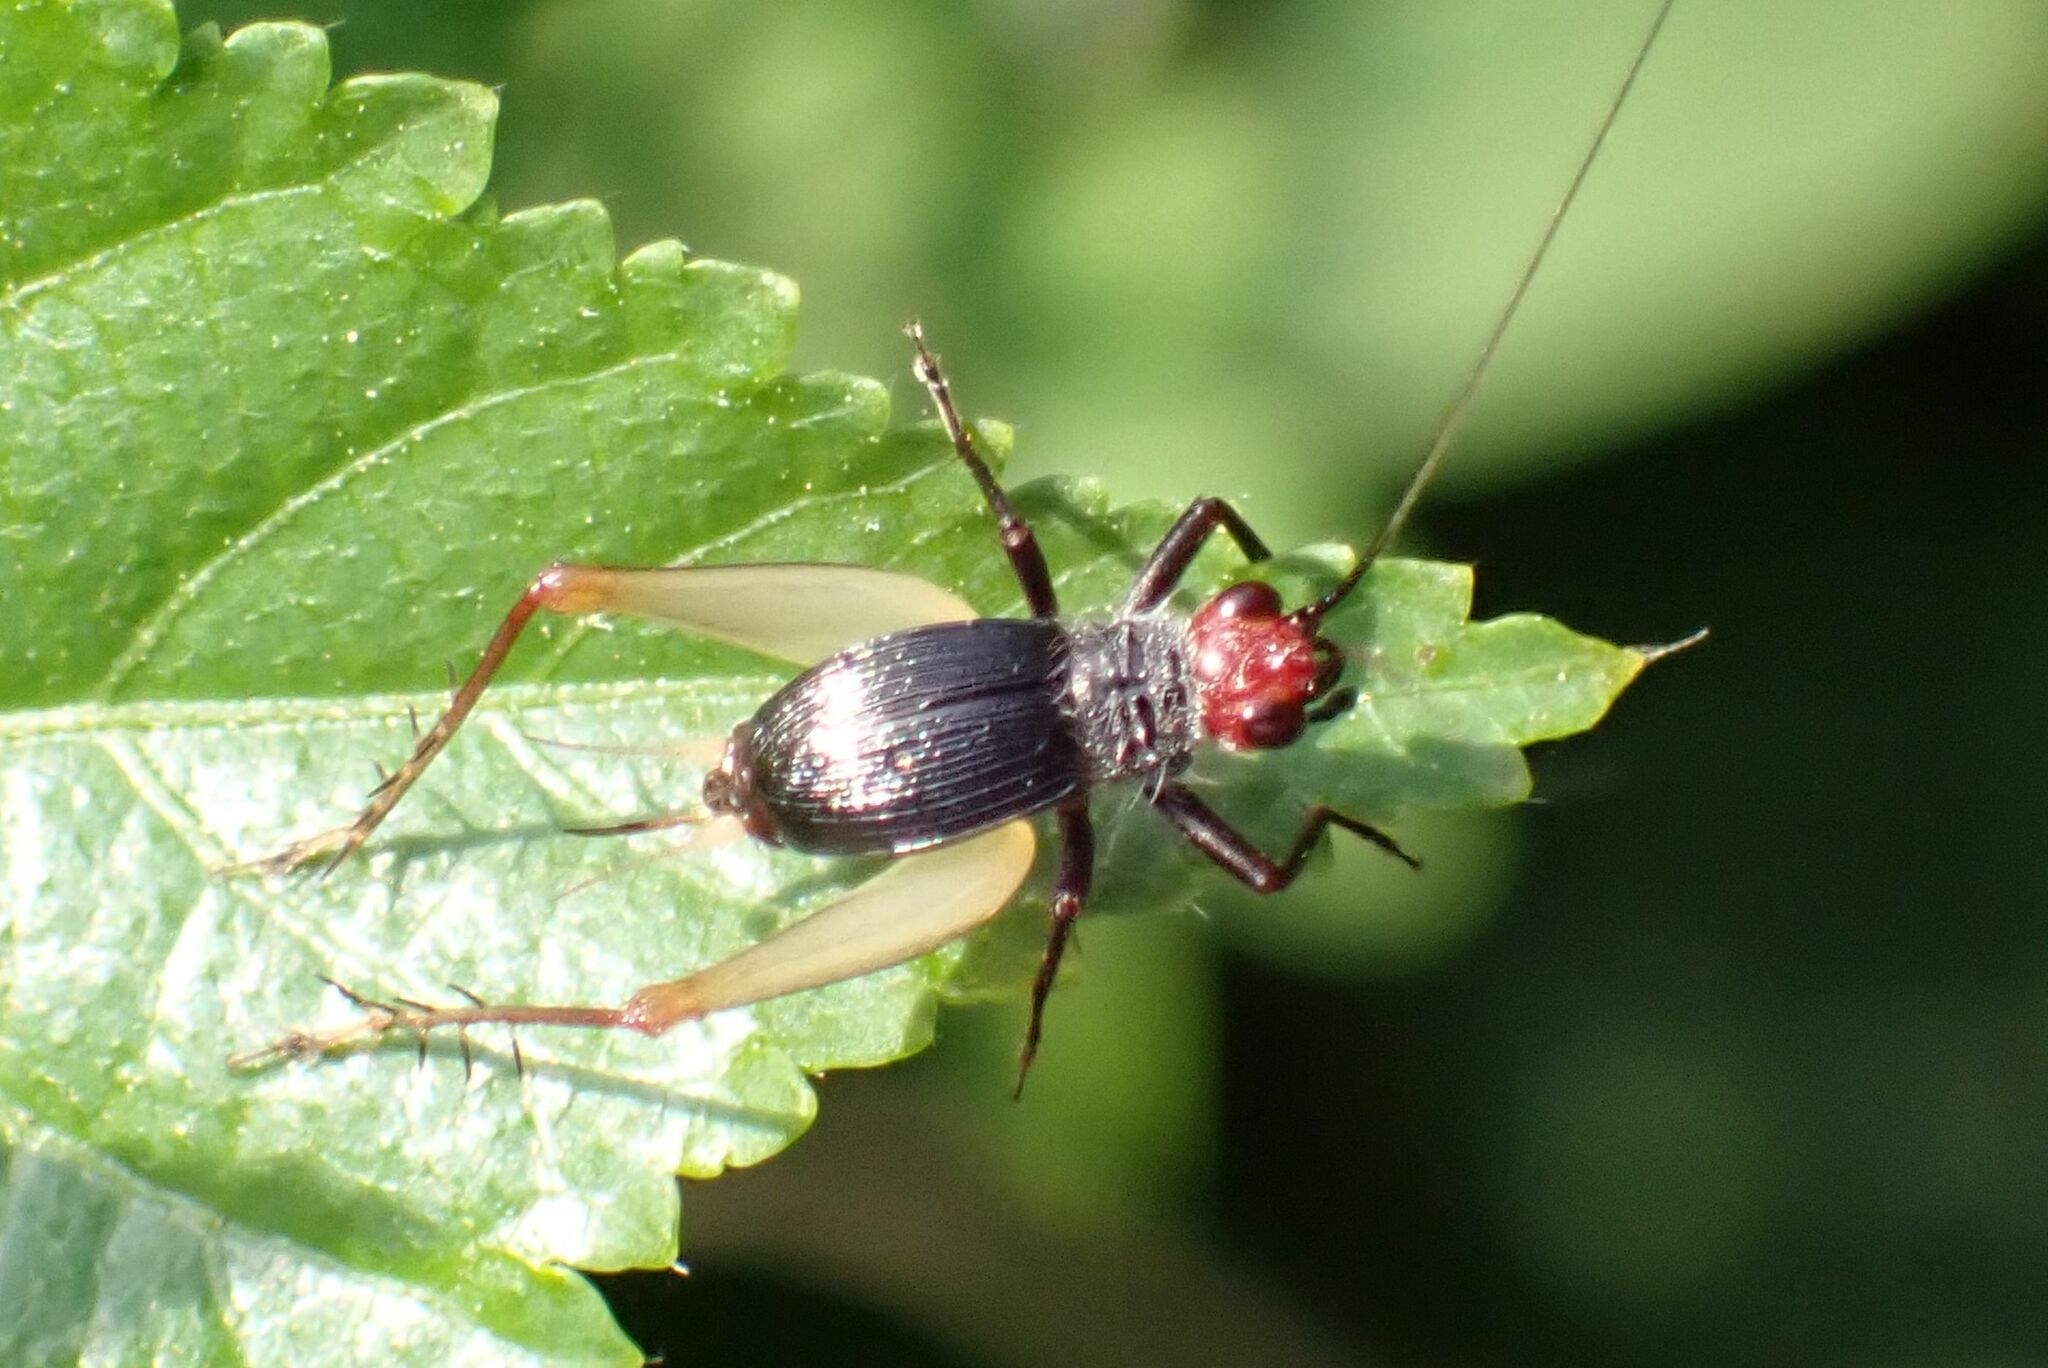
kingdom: Animalia
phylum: Arthropoda
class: Insecta
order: Orthoptera
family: Trigonidiidae
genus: Trigonidium
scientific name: Trigonidium erythrocephalum
